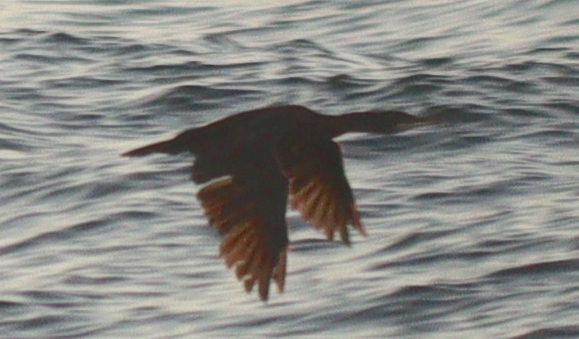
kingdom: Animalia
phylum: Chordata
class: Aves
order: Suliformes
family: Phalacrocoracidae
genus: Phalacrocorax
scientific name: Phalacrocorax aristotelis
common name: European shag
